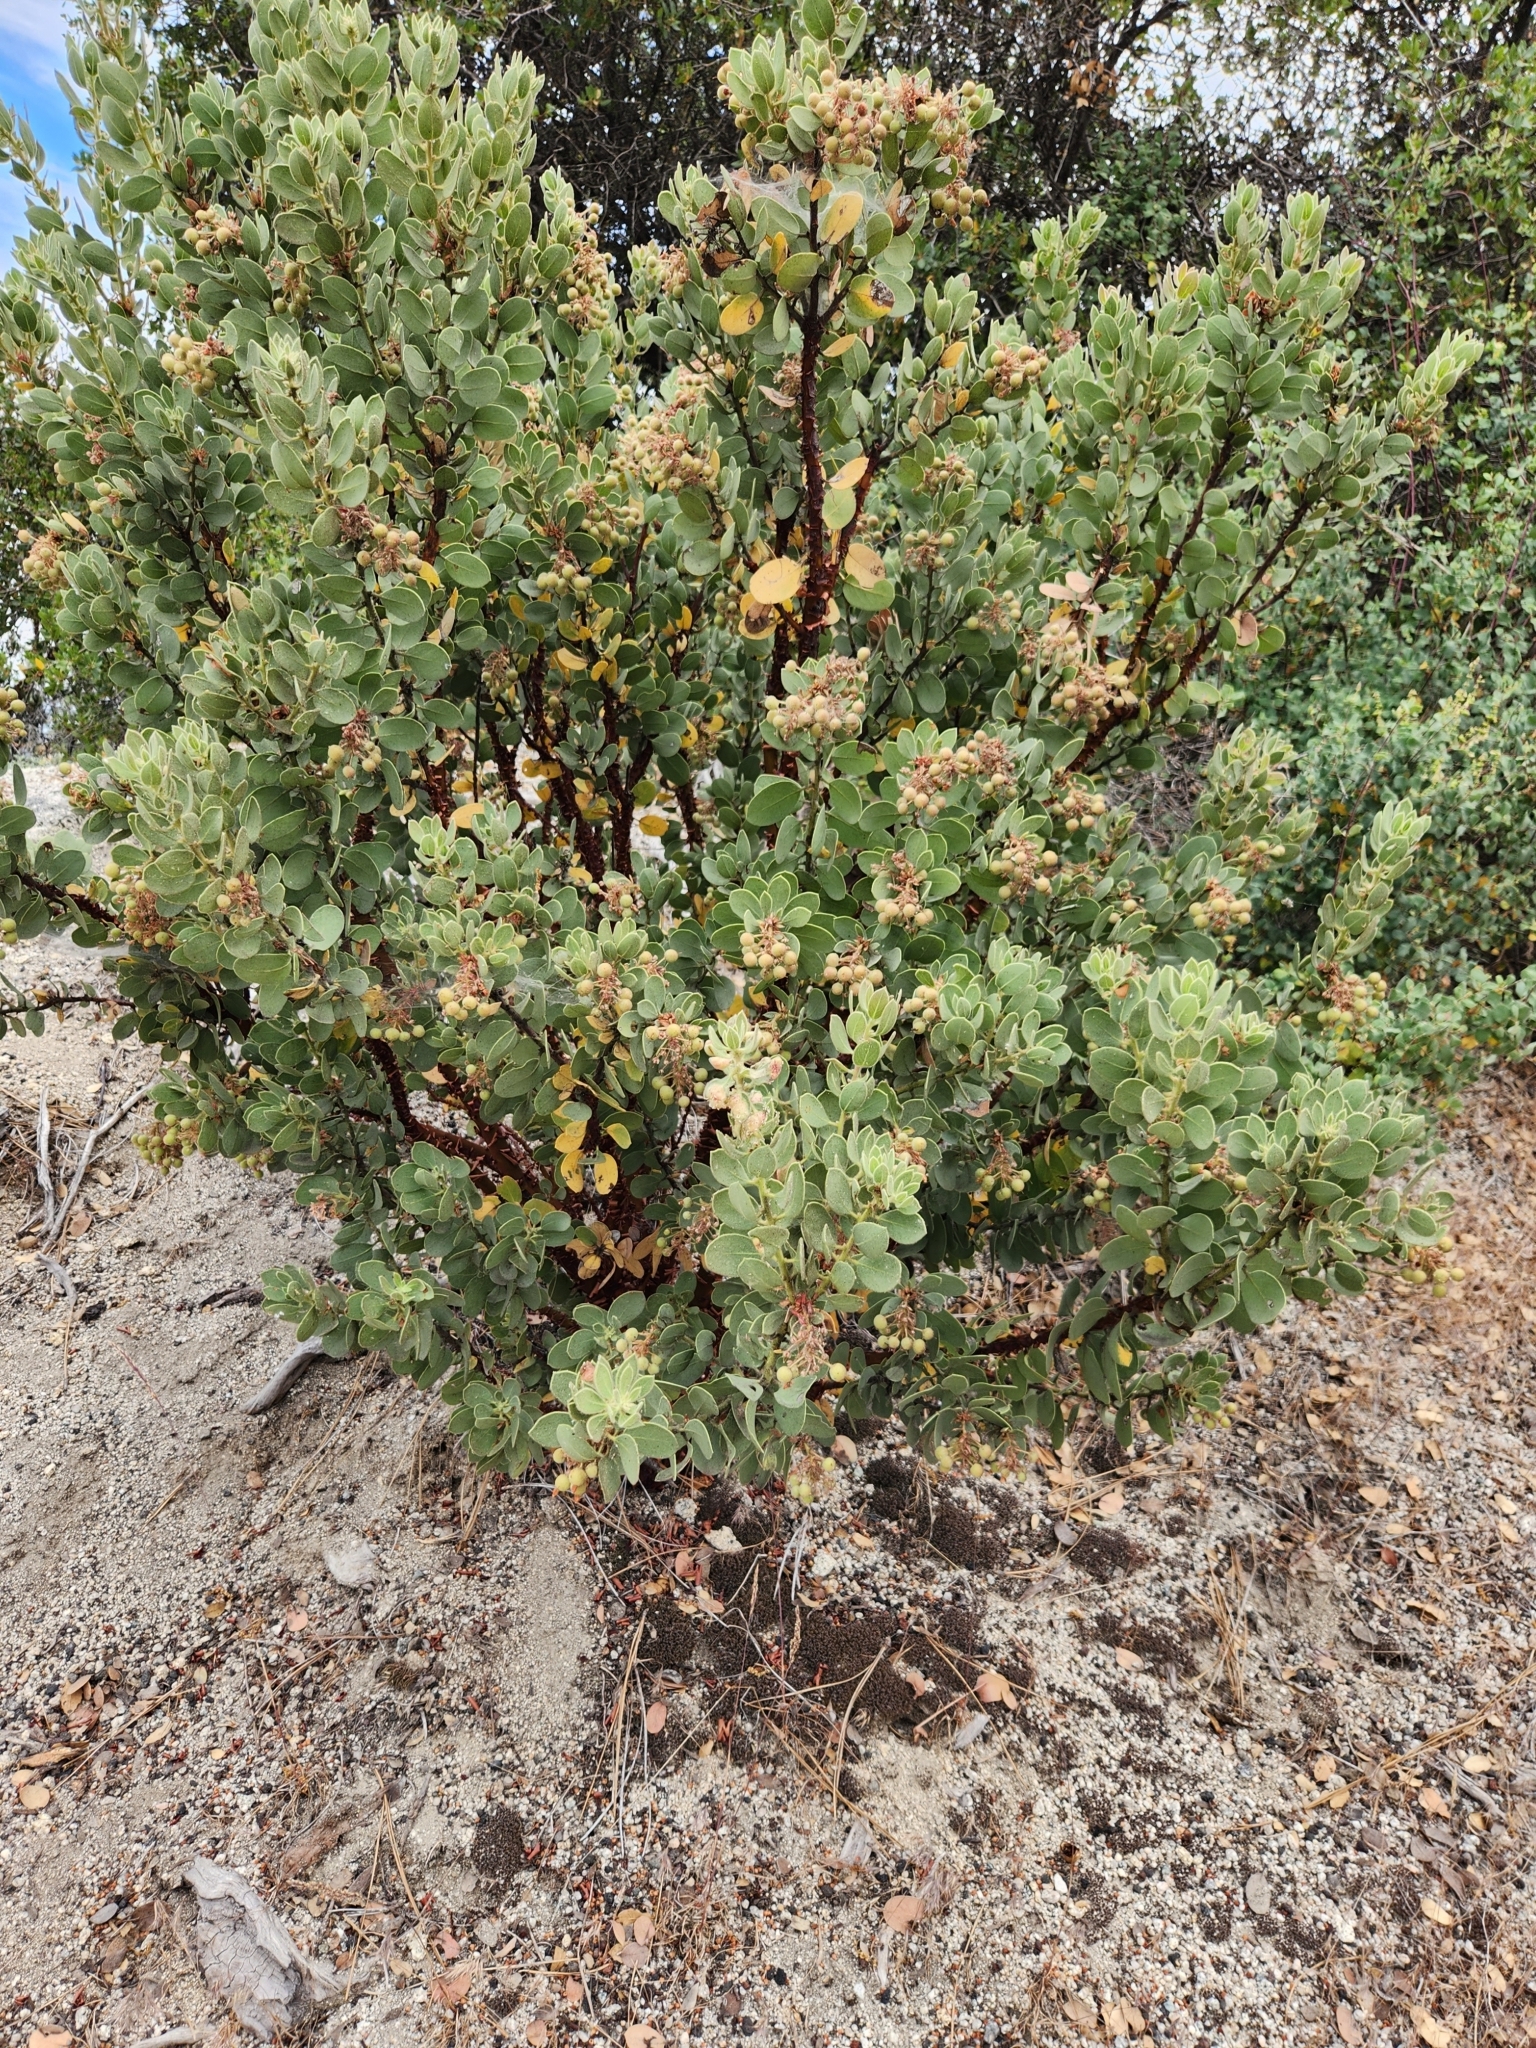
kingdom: Plantae
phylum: Tracheophyta
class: Magnoliopsida
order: Ericales
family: Ericaceae
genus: Arctostaphylos
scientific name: Arctostaphylos pringlei
